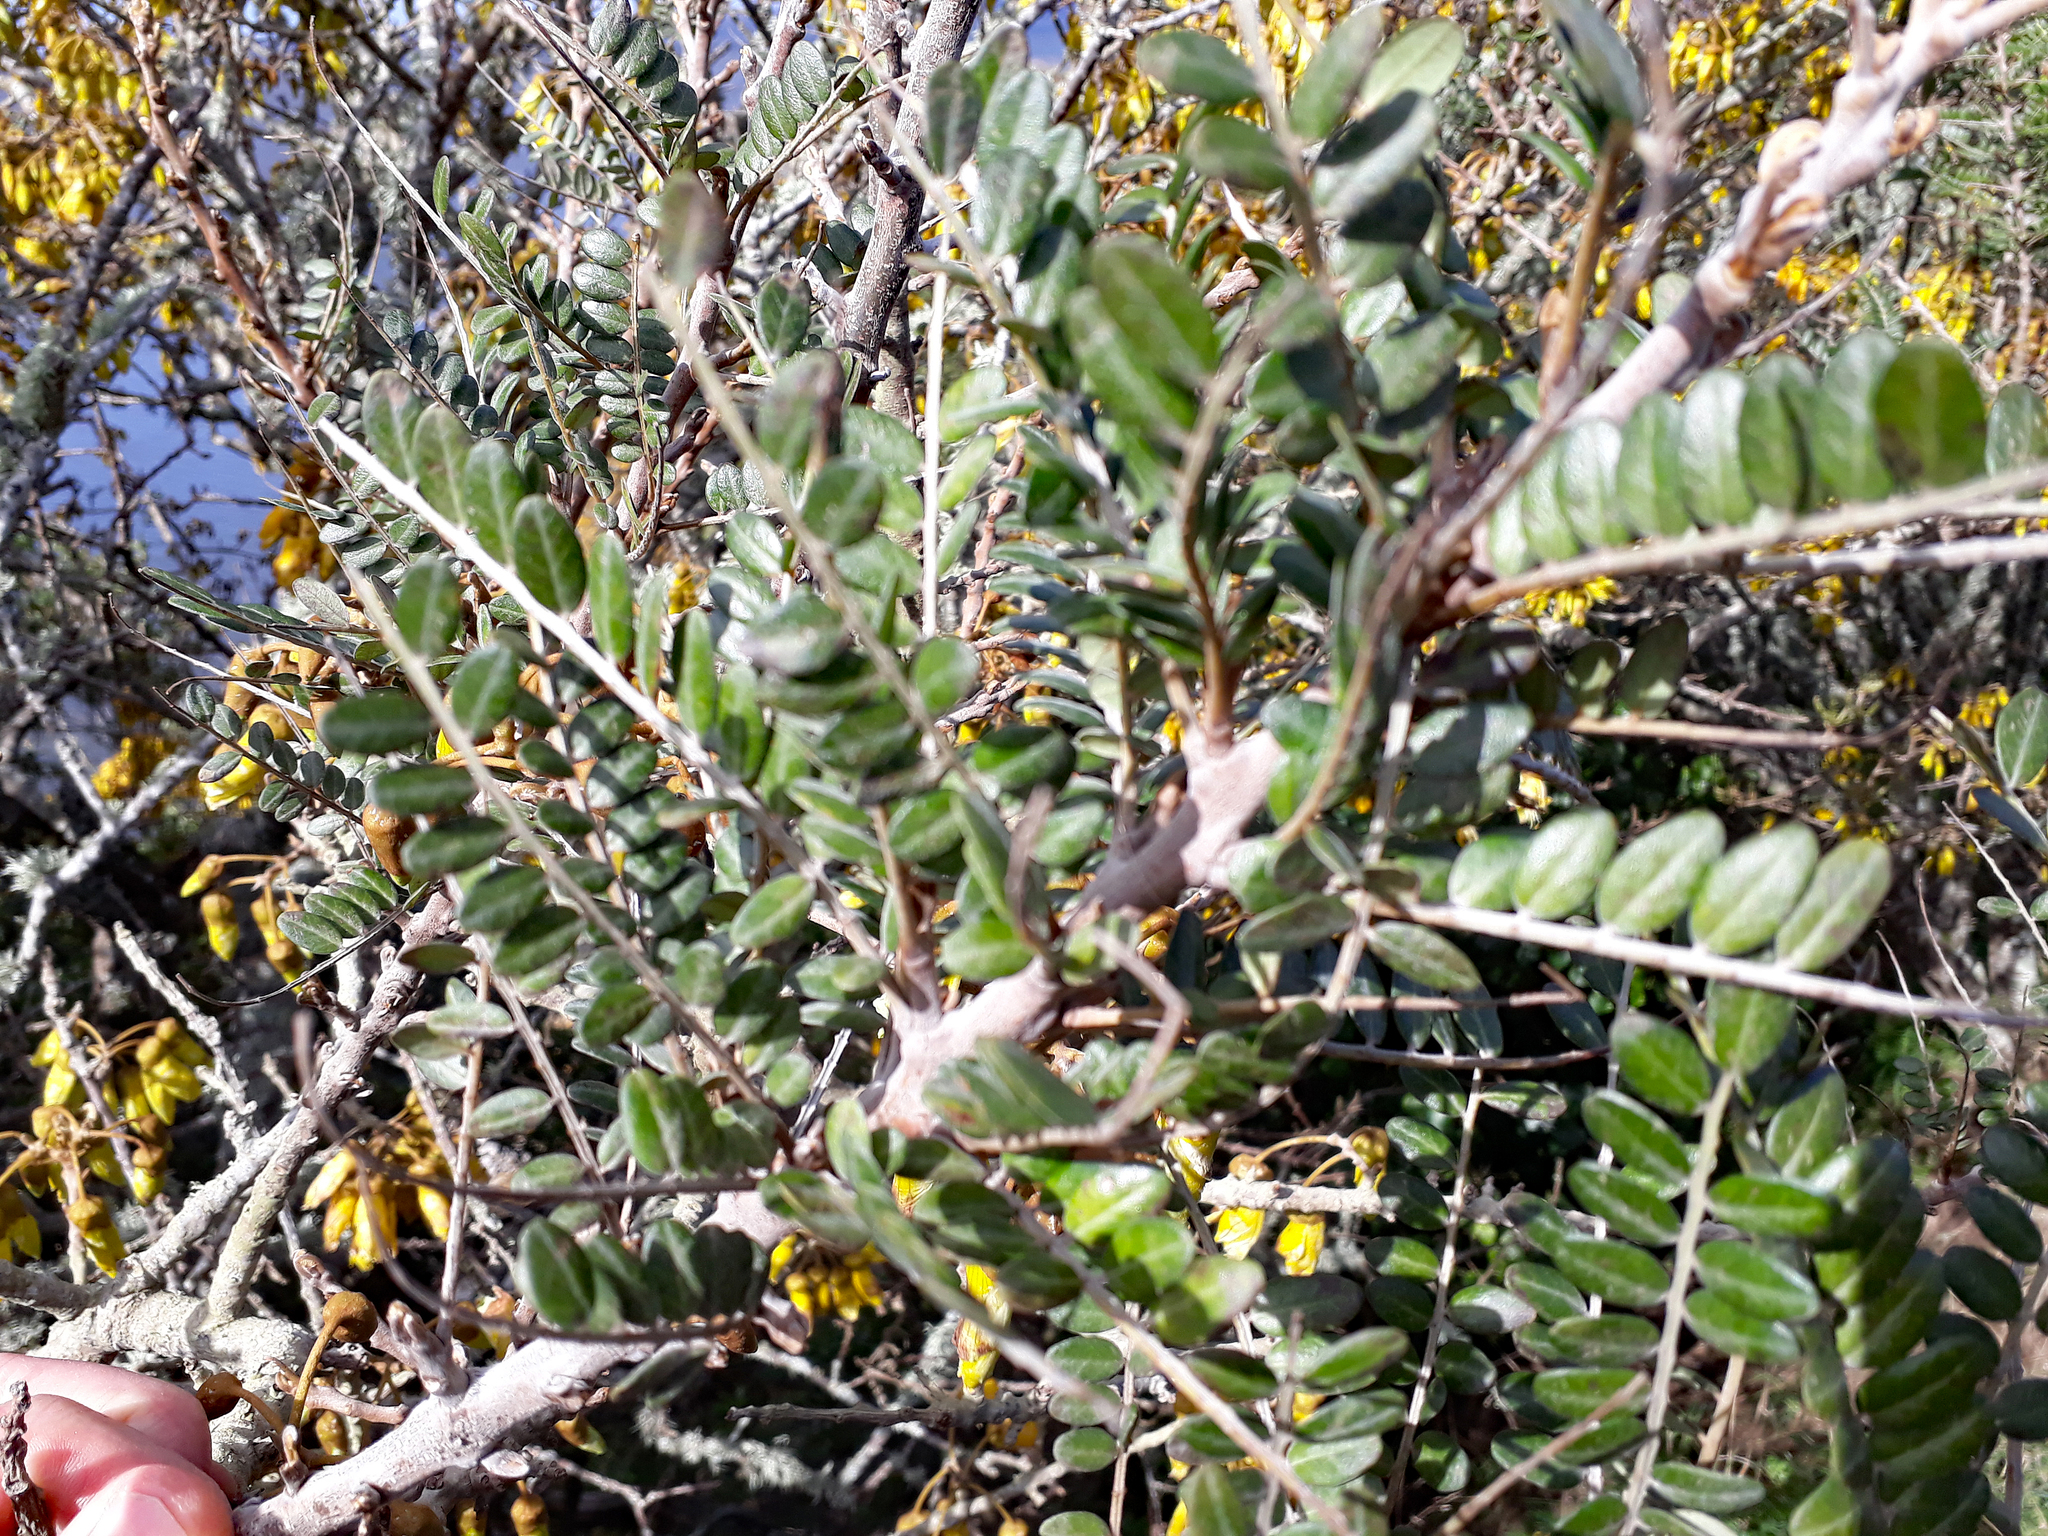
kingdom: Plantae
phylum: Tracheophyta
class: Magnoliopsida
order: Fabales
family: Fabaceae
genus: Sophora
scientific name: Sophora chathamica
